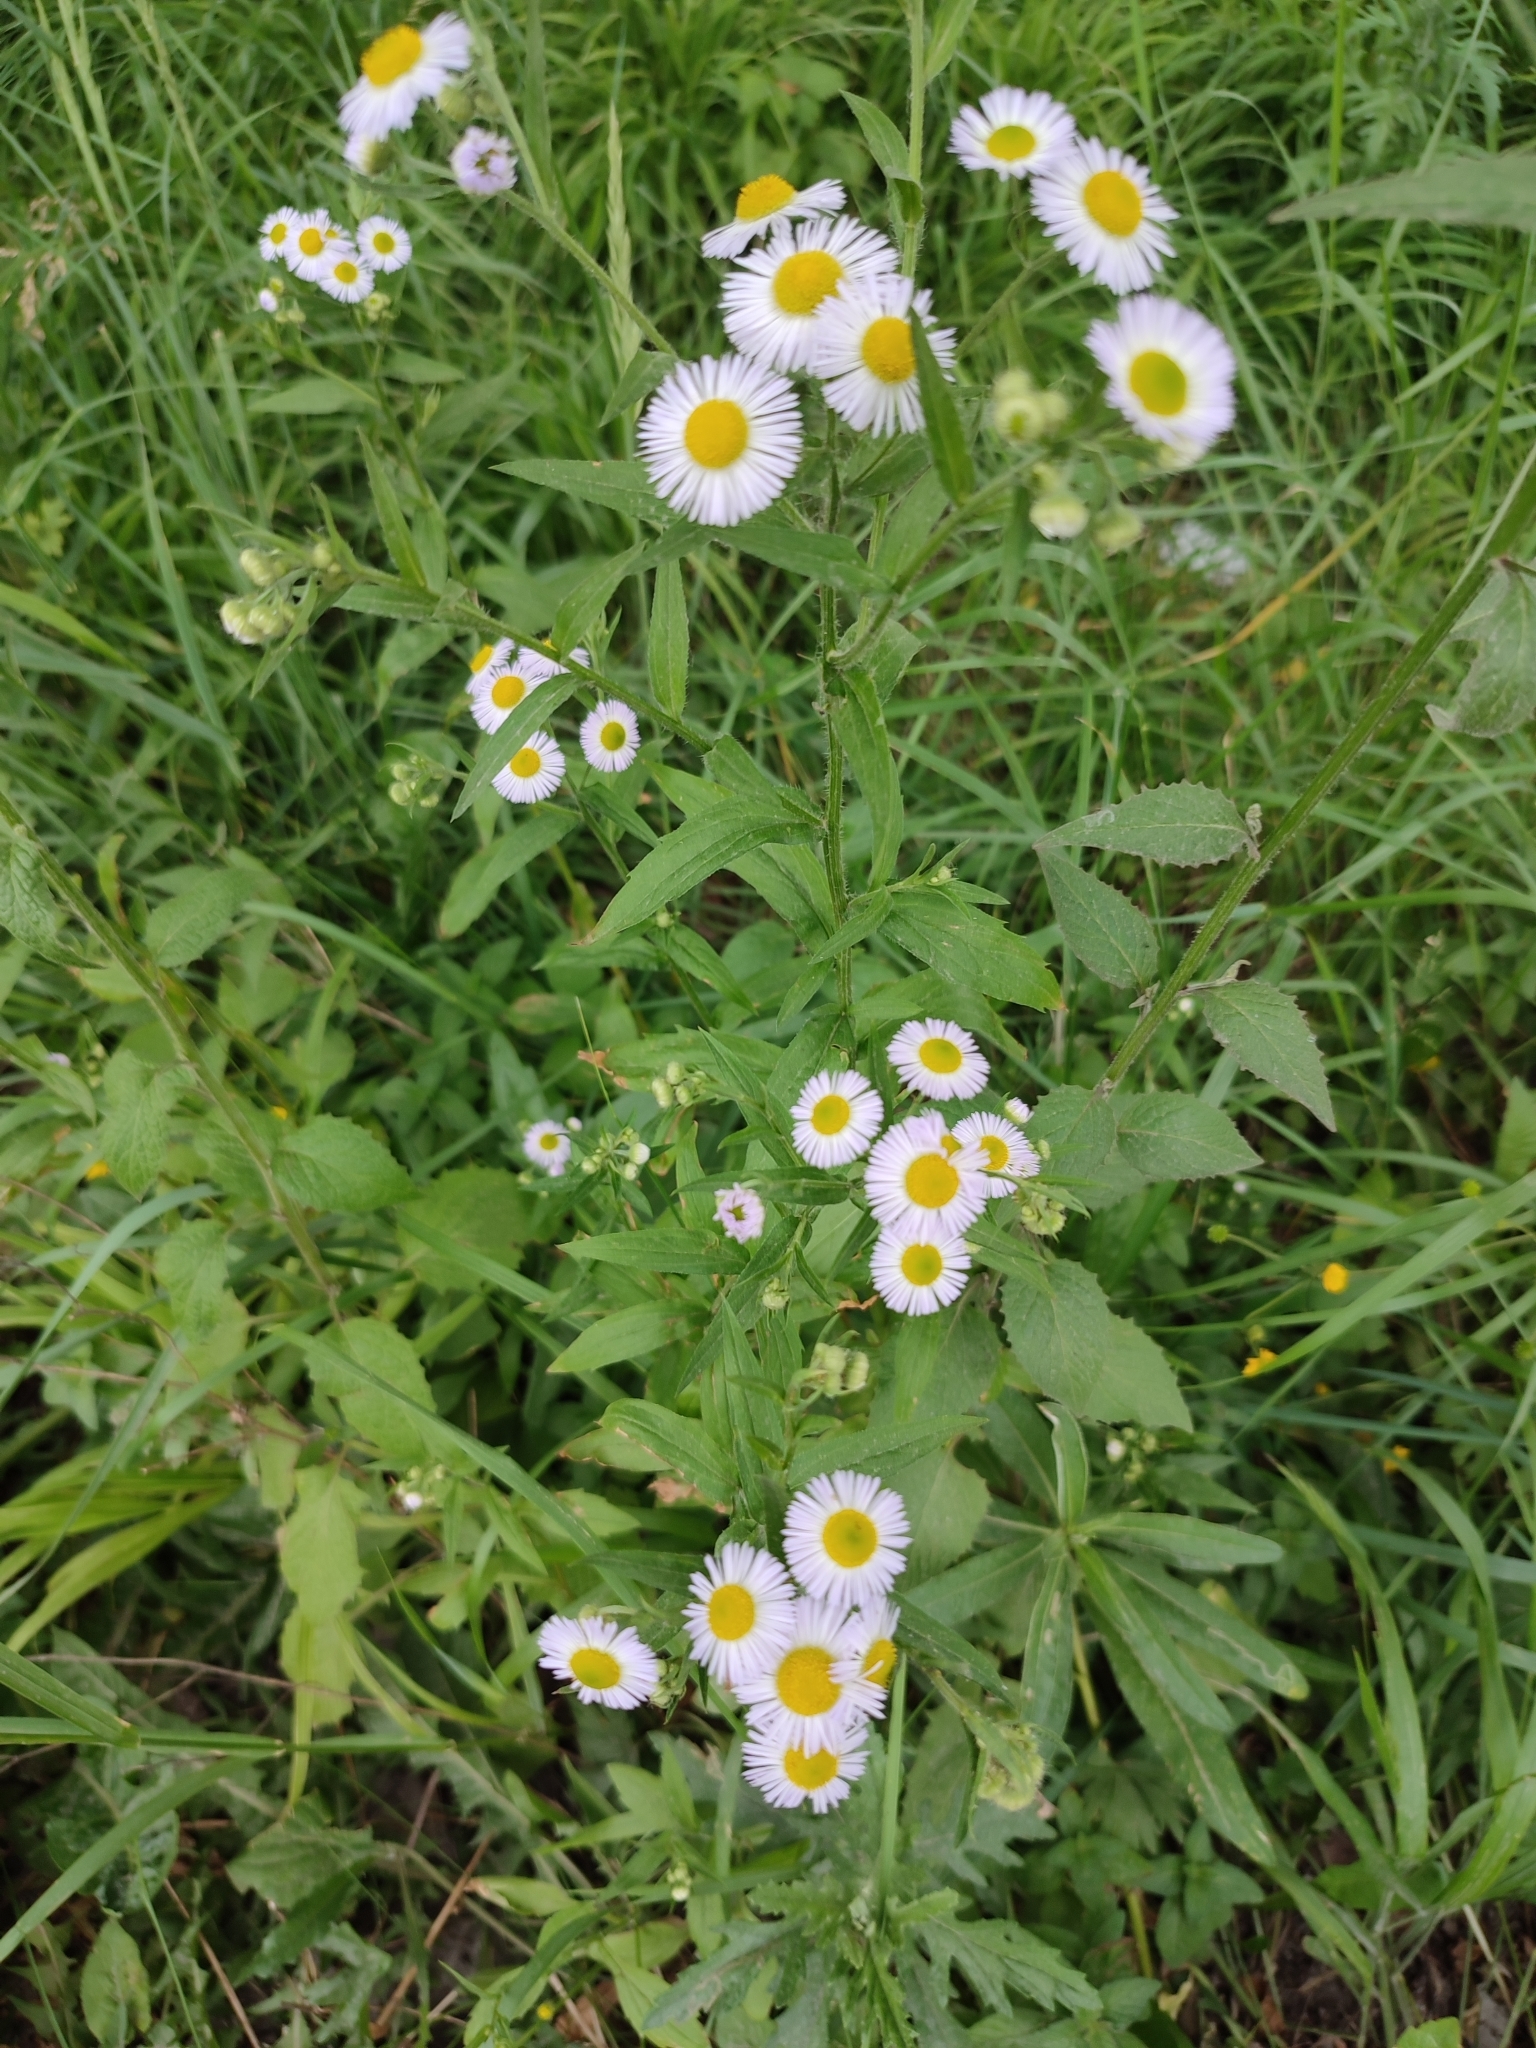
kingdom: Plantae
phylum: Tracheophyta
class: Magnoliopsida
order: Asterales
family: Asteraceae
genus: Erigeron
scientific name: Erigeron annuus
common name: Tall fleabane
